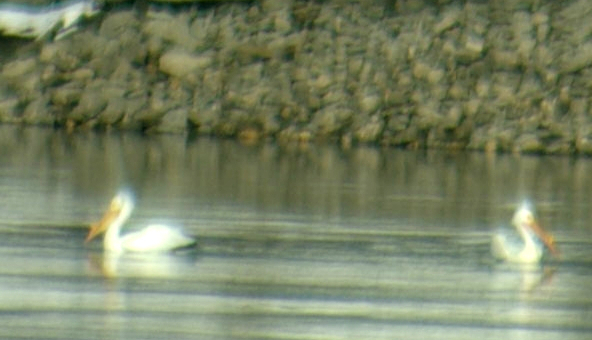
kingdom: Animalia
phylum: Chordata
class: Aves
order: Pelecaniformes
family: Pelecanidae
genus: Pelecanus
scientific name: Pelecanus erythrorhynchos
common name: American white pelican
